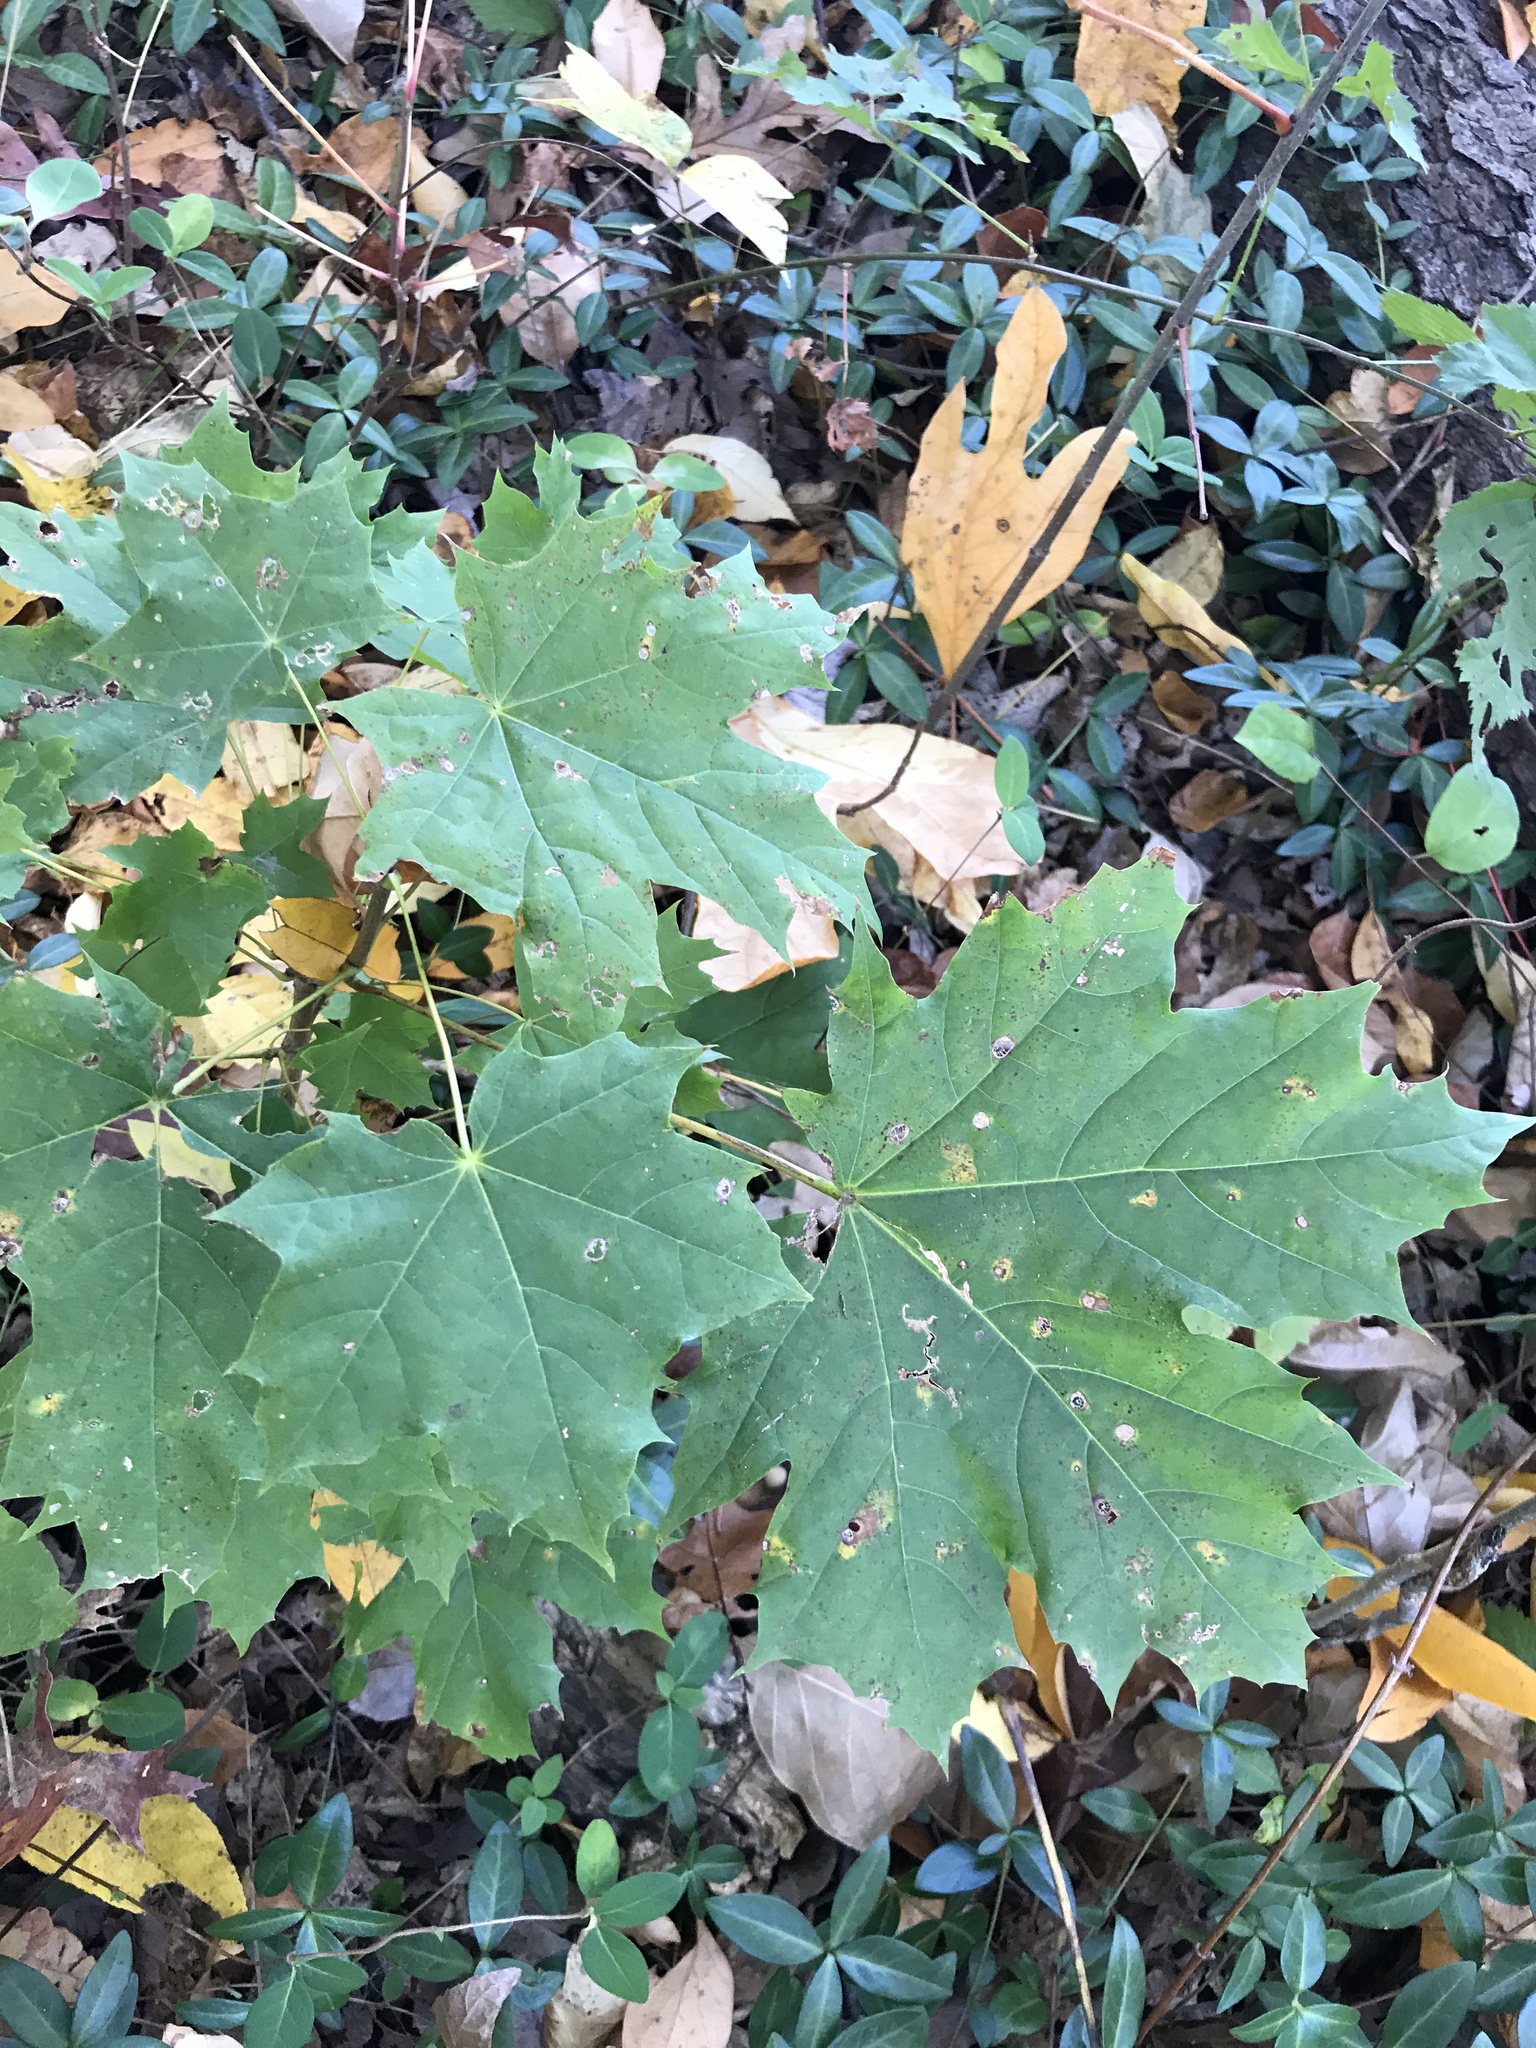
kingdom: Plantae
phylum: Tracheophyta
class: Magnoliopsida
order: Sapindales
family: Sapindaceae
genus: Acer
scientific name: Acer platanoides
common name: Norway maple
